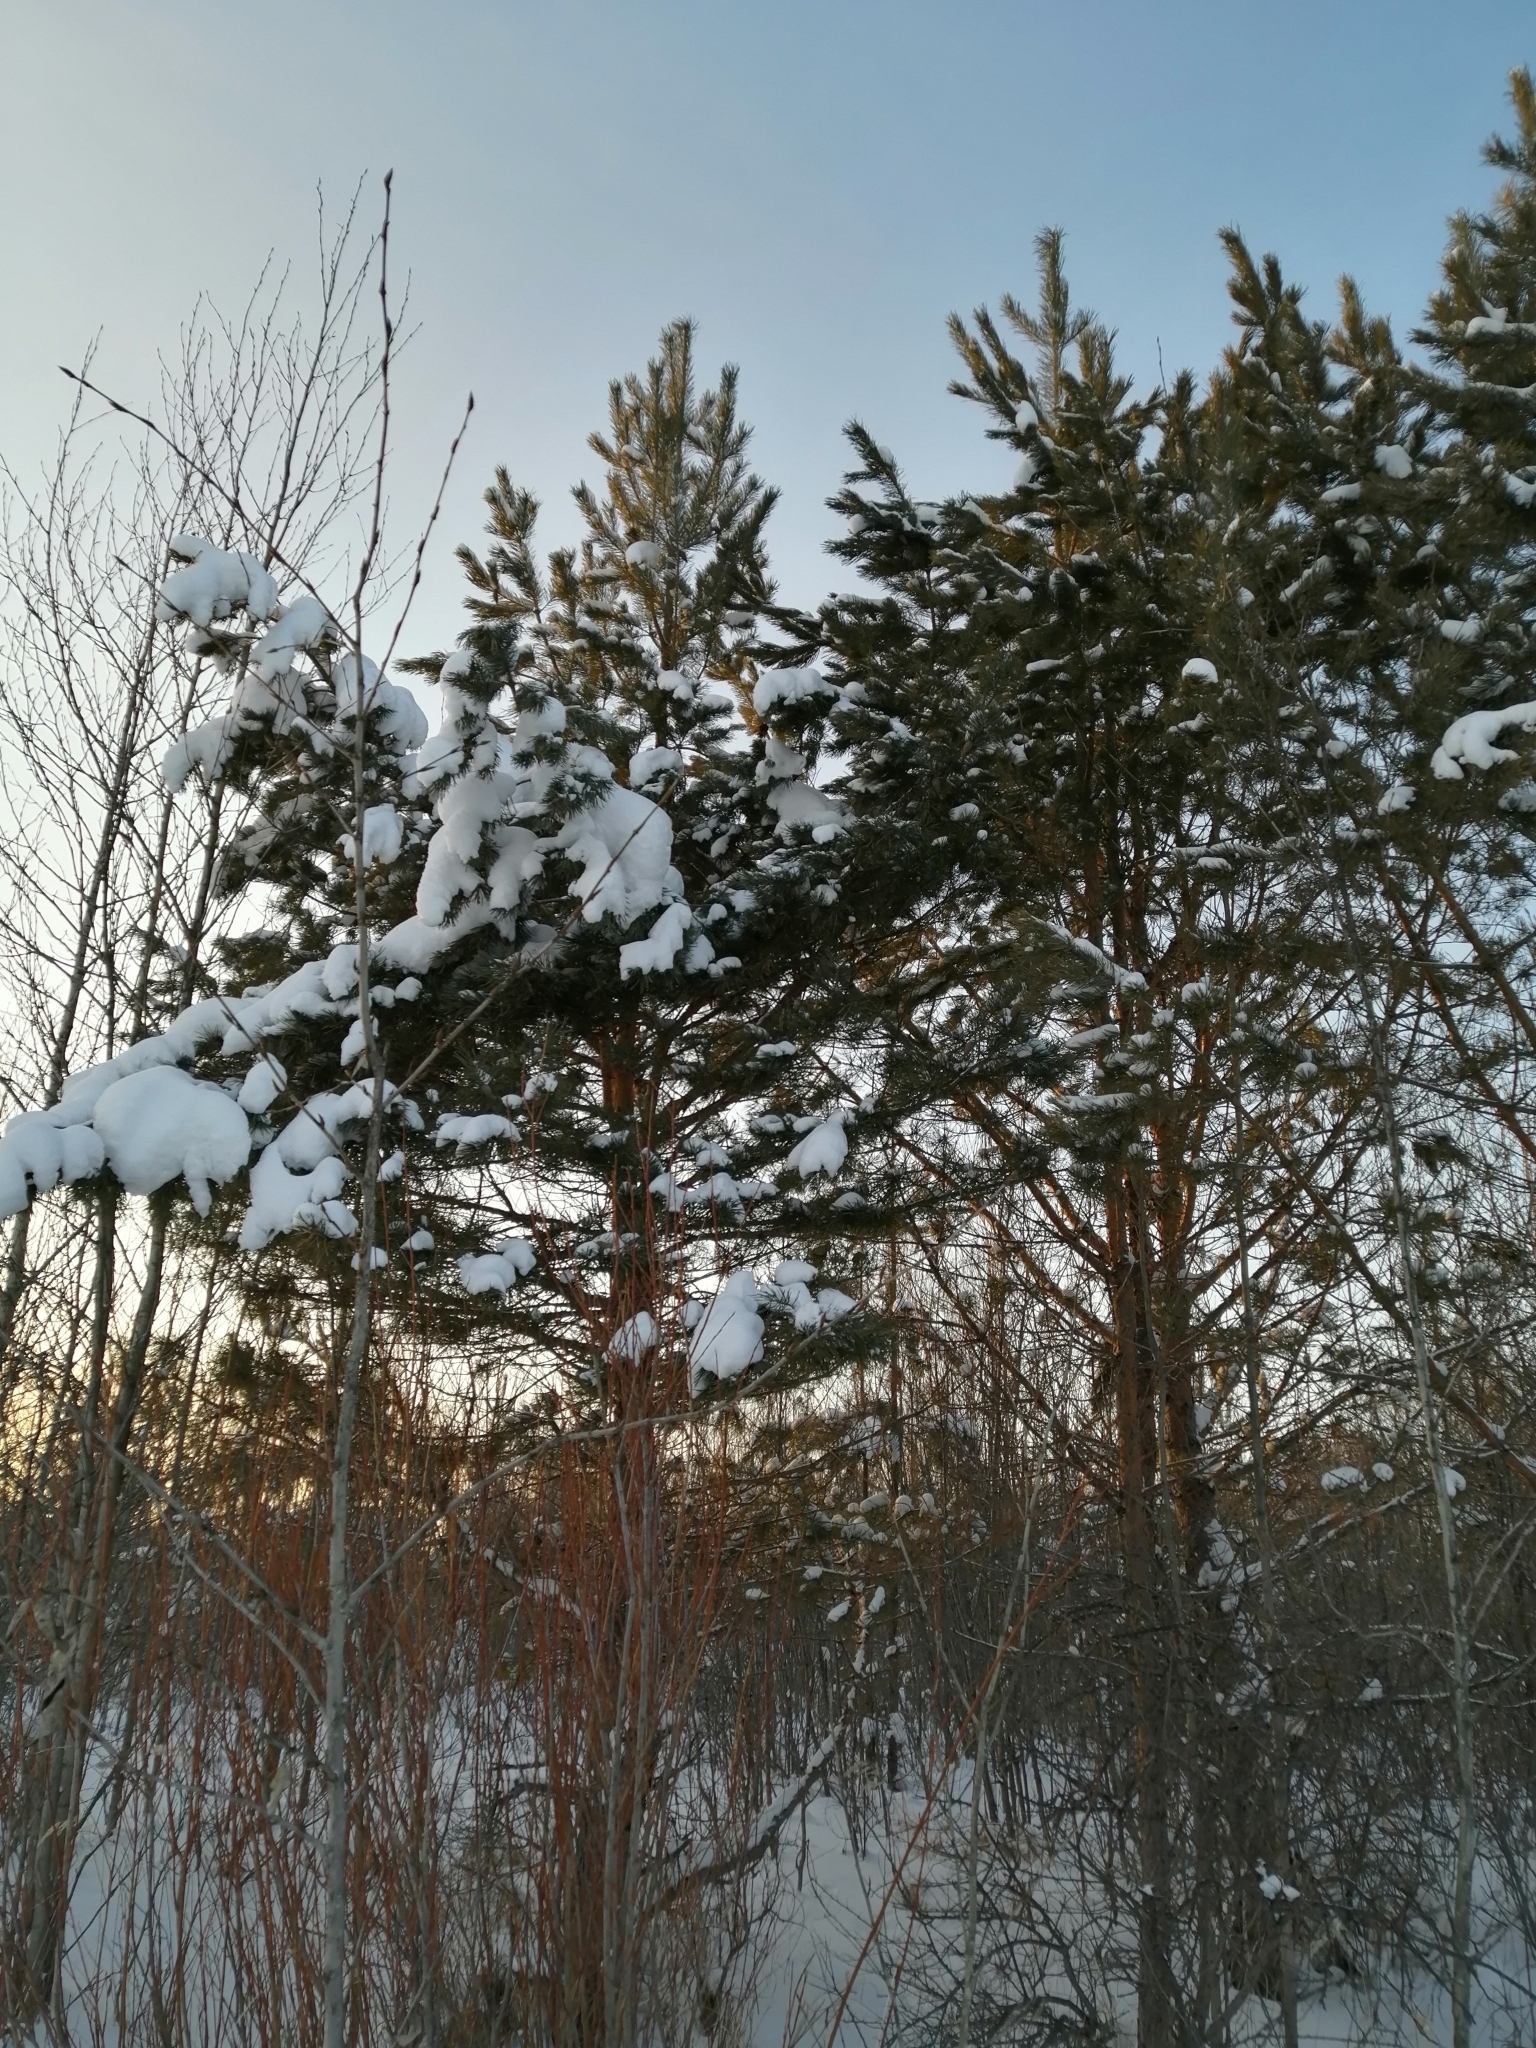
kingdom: Plantae
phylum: Tracheophyta
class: Pinopsida
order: Pinales
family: Pinaceae
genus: Pinus
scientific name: Pinus sylvestris
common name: Scots pine
